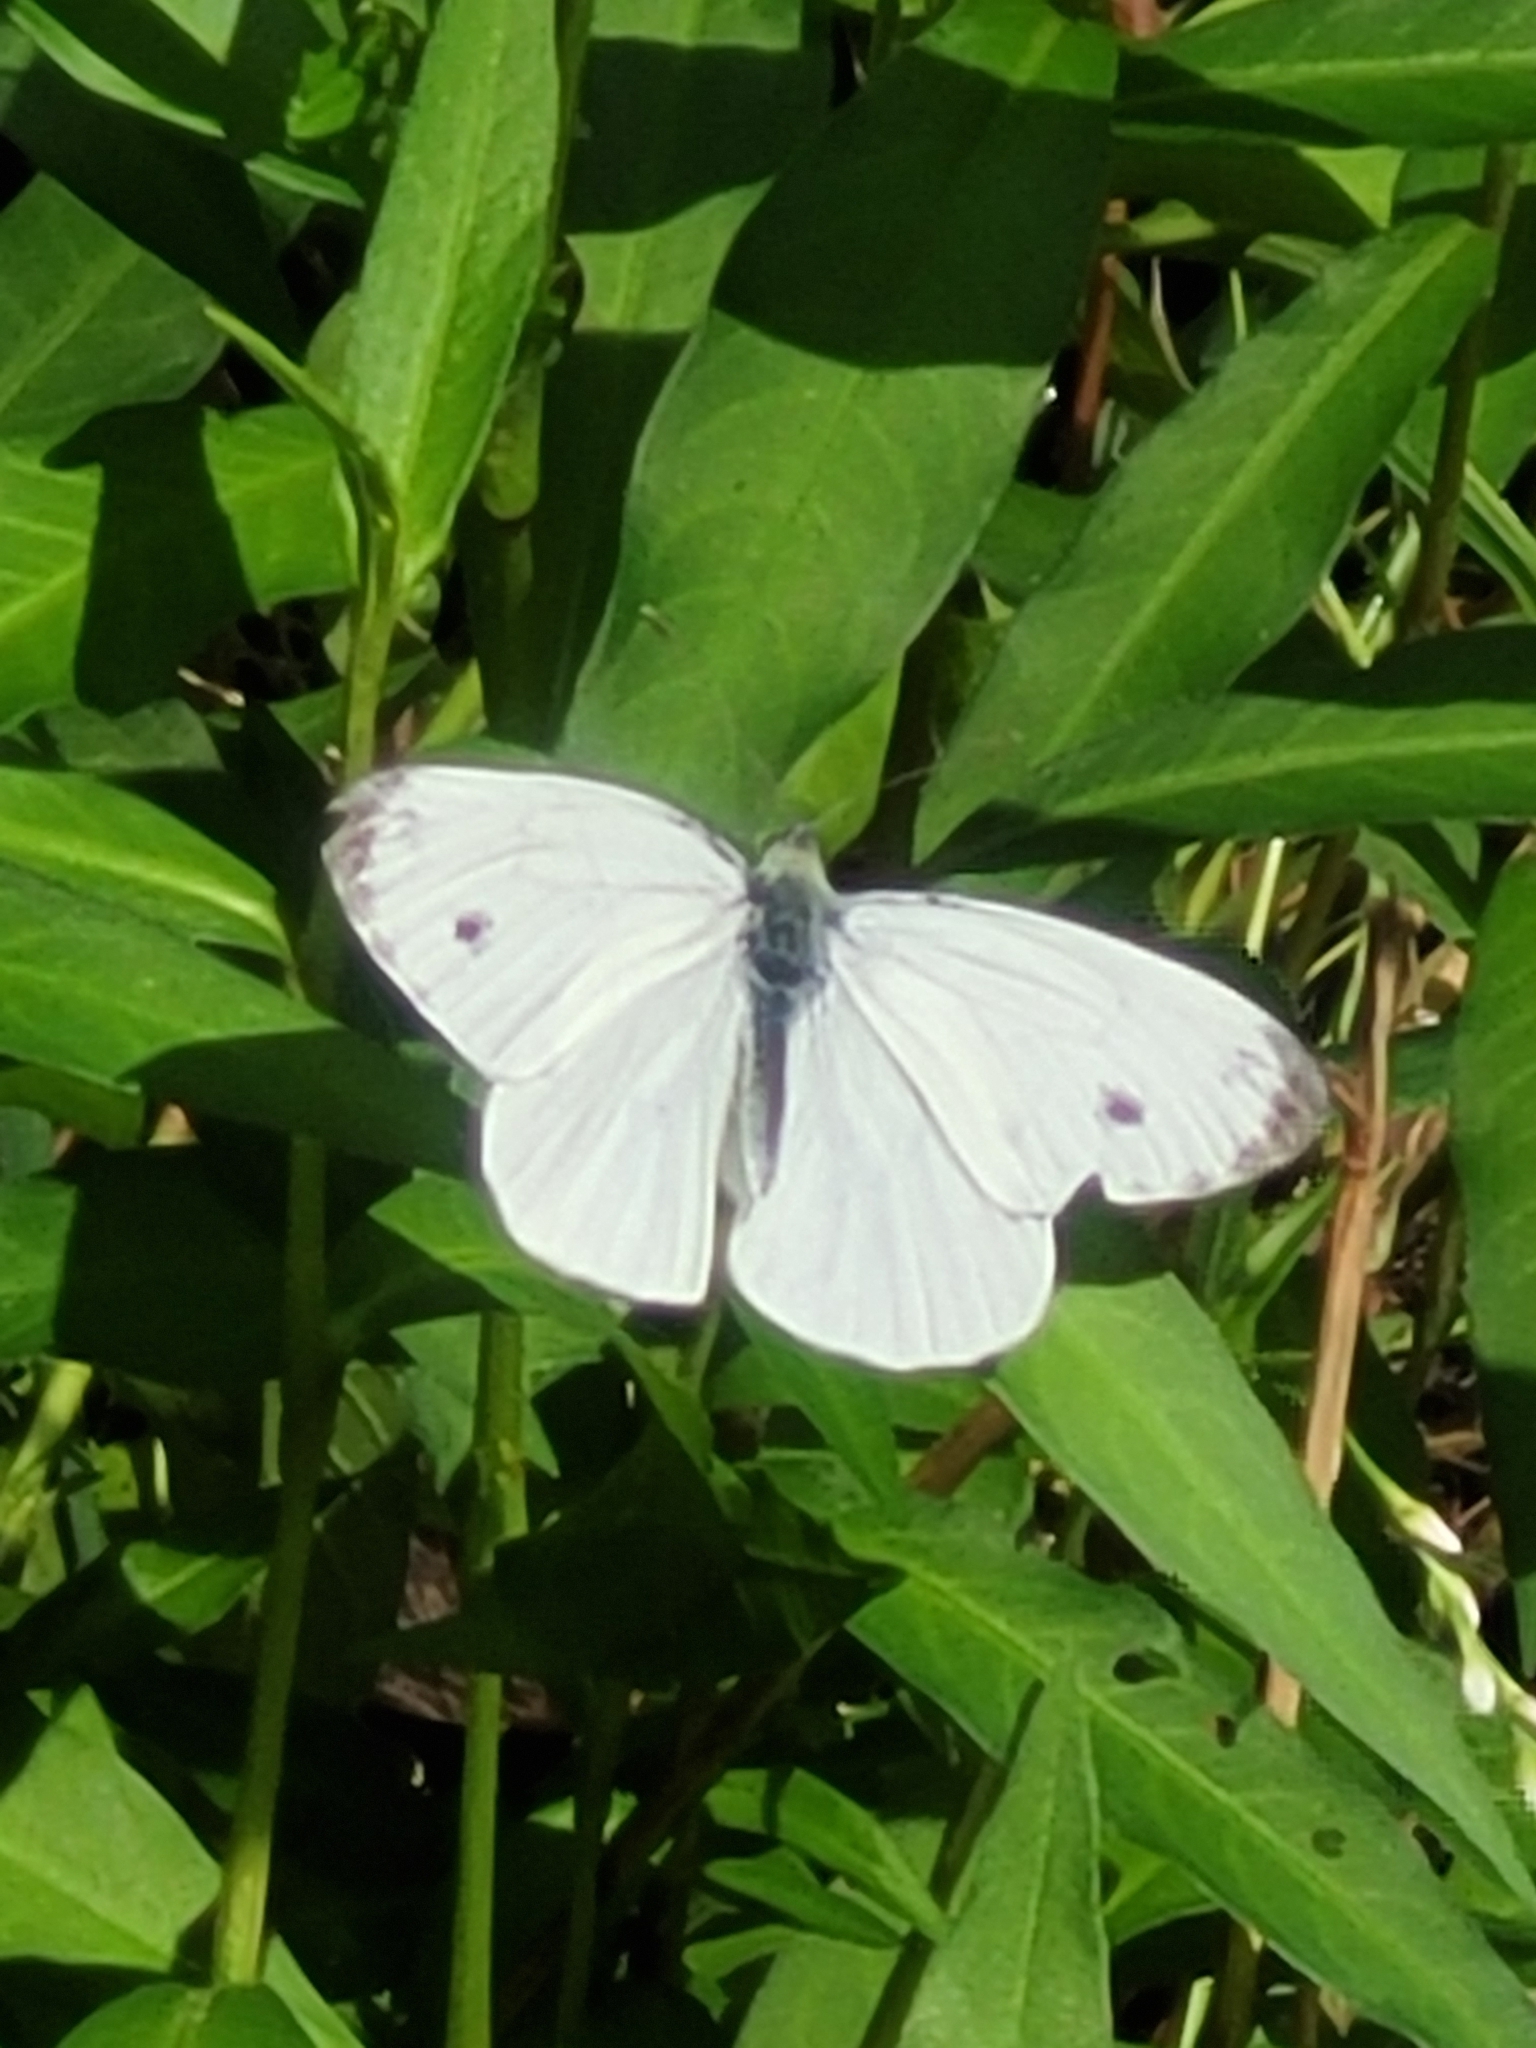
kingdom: Animalia
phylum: Arthropoda
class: Insecta
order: Lepidoptera
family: Pieridae
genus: Pieris
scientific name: Pieris napi
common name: Green-veined white
